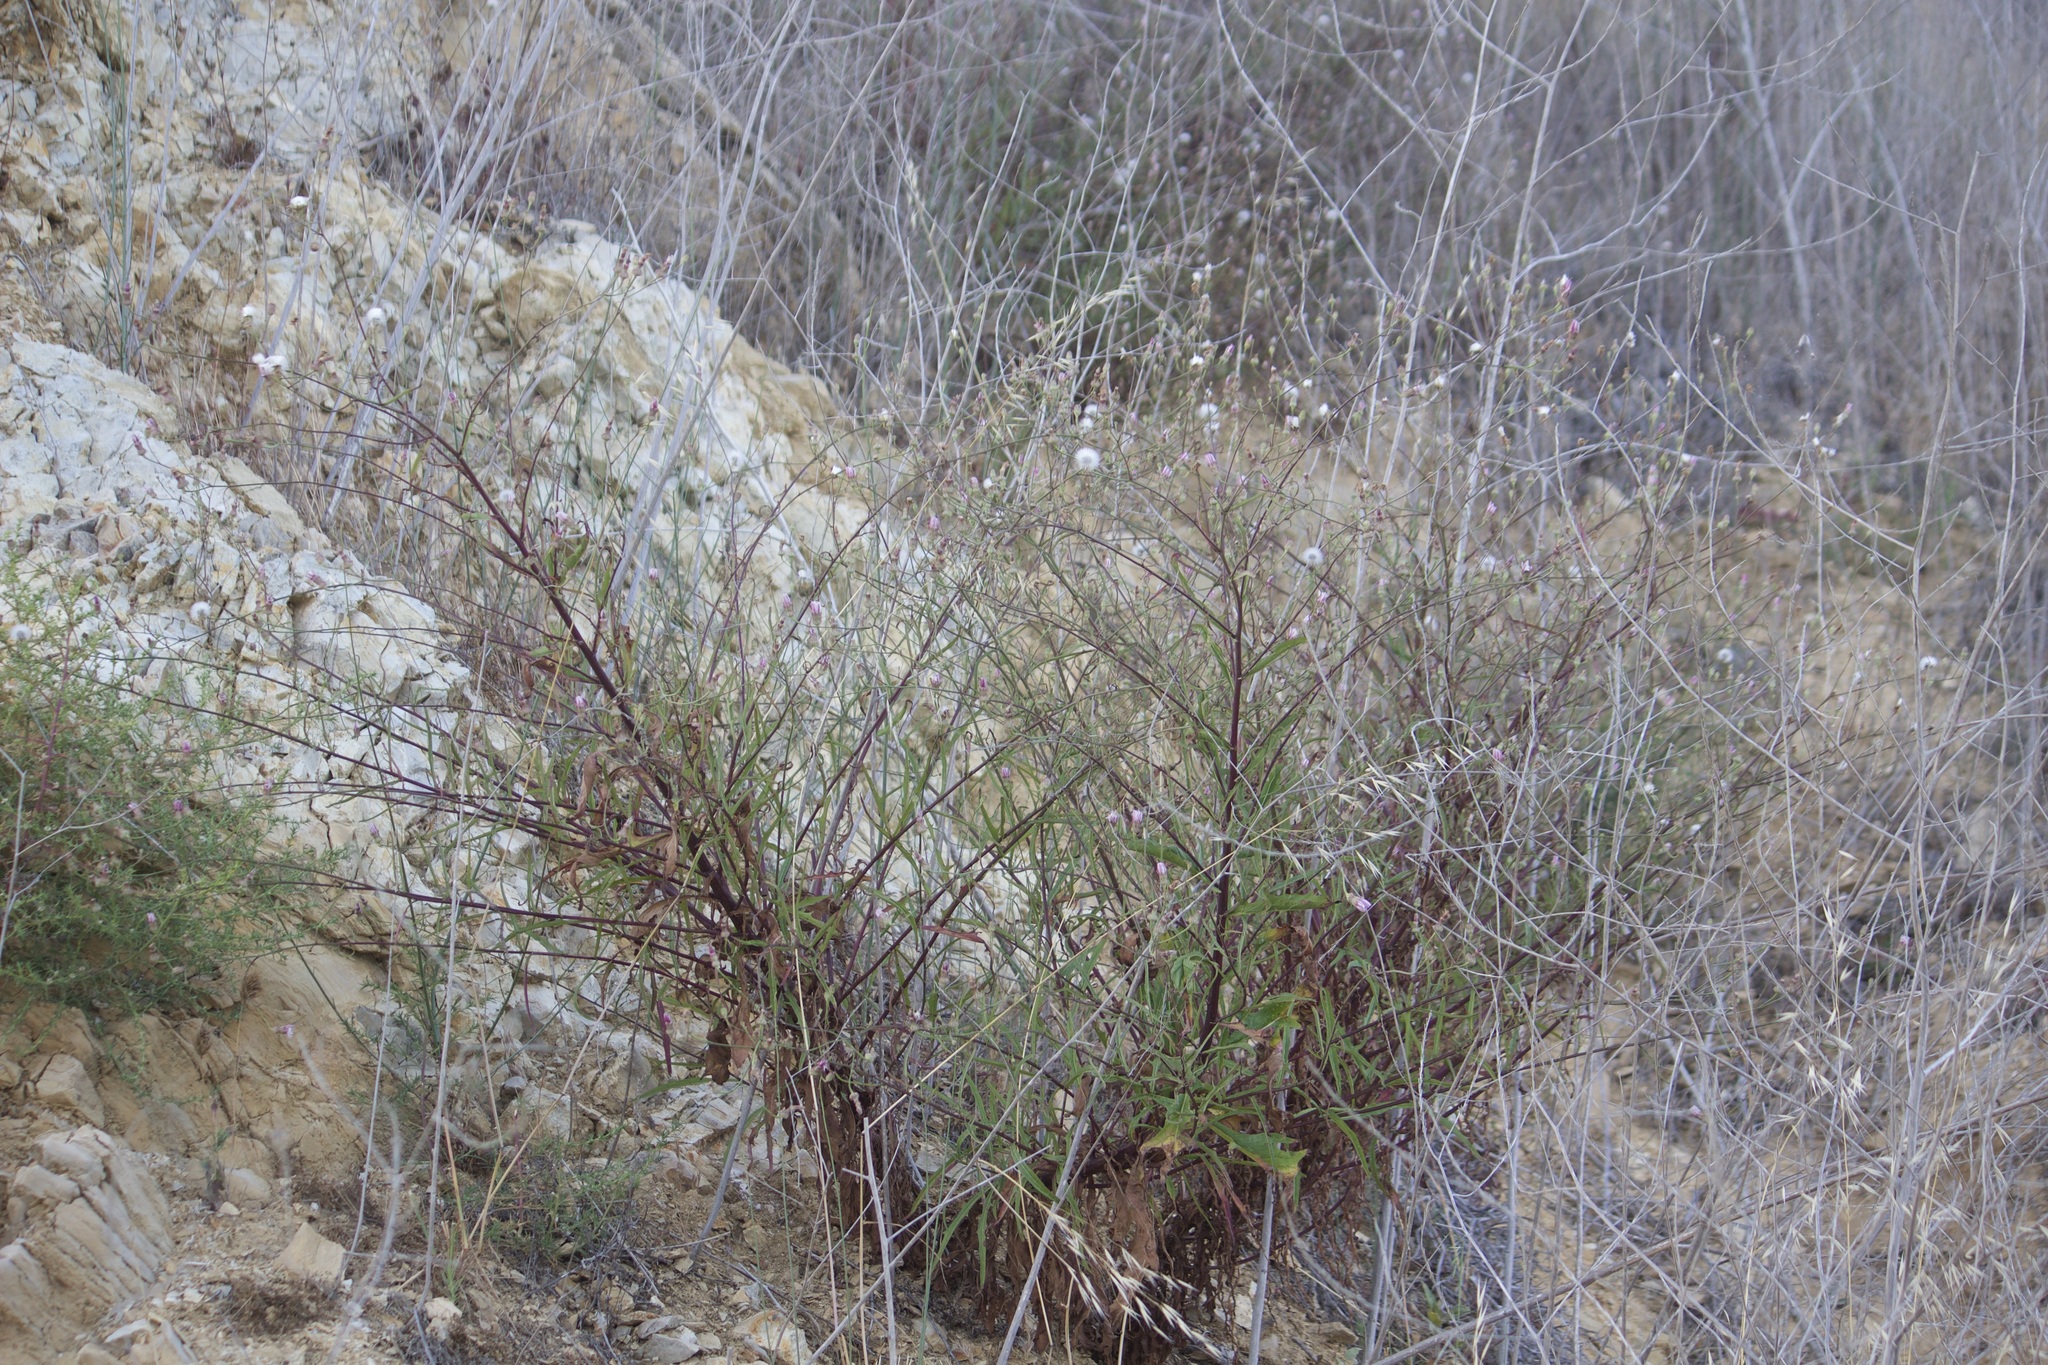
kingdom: Plantae
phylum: Tracheophyta
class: Magnoliopsida
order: Asterales
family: Asteraceae
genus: Malacothrix
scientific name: Malacothrix saxatilis
